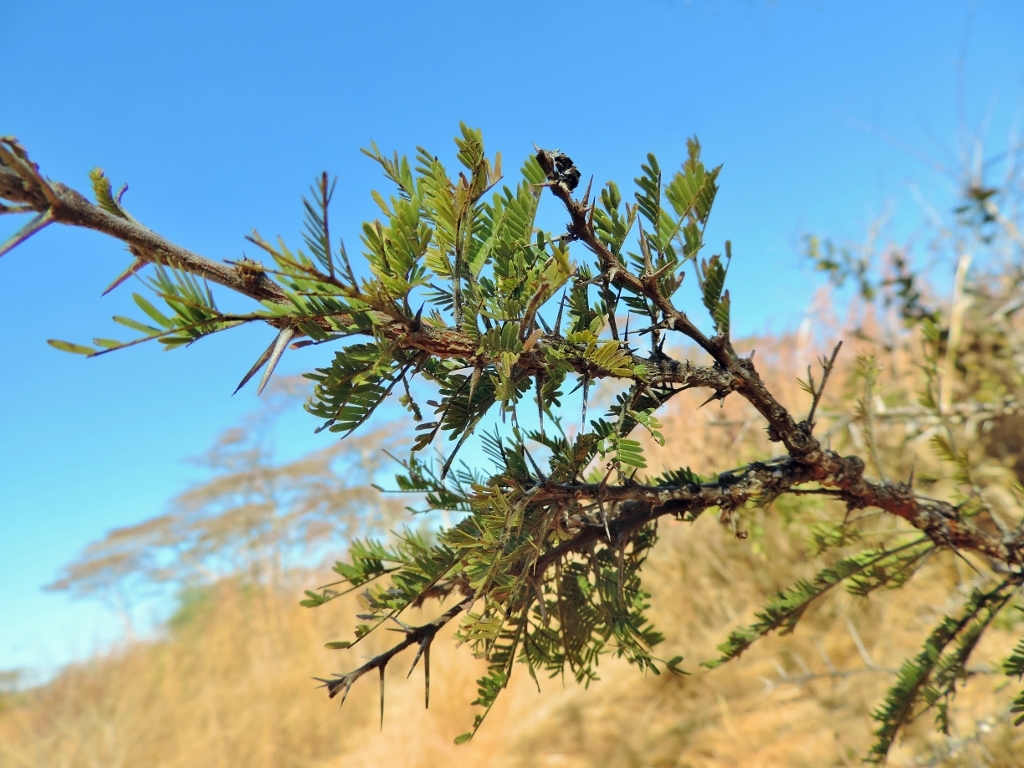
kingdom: Plantae
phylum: Tracheophyta
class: Magnoliopsida
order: Fabales
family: Fabaceae
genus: Vachellia
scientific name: Vachellia karroo
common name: Sweet thorn
